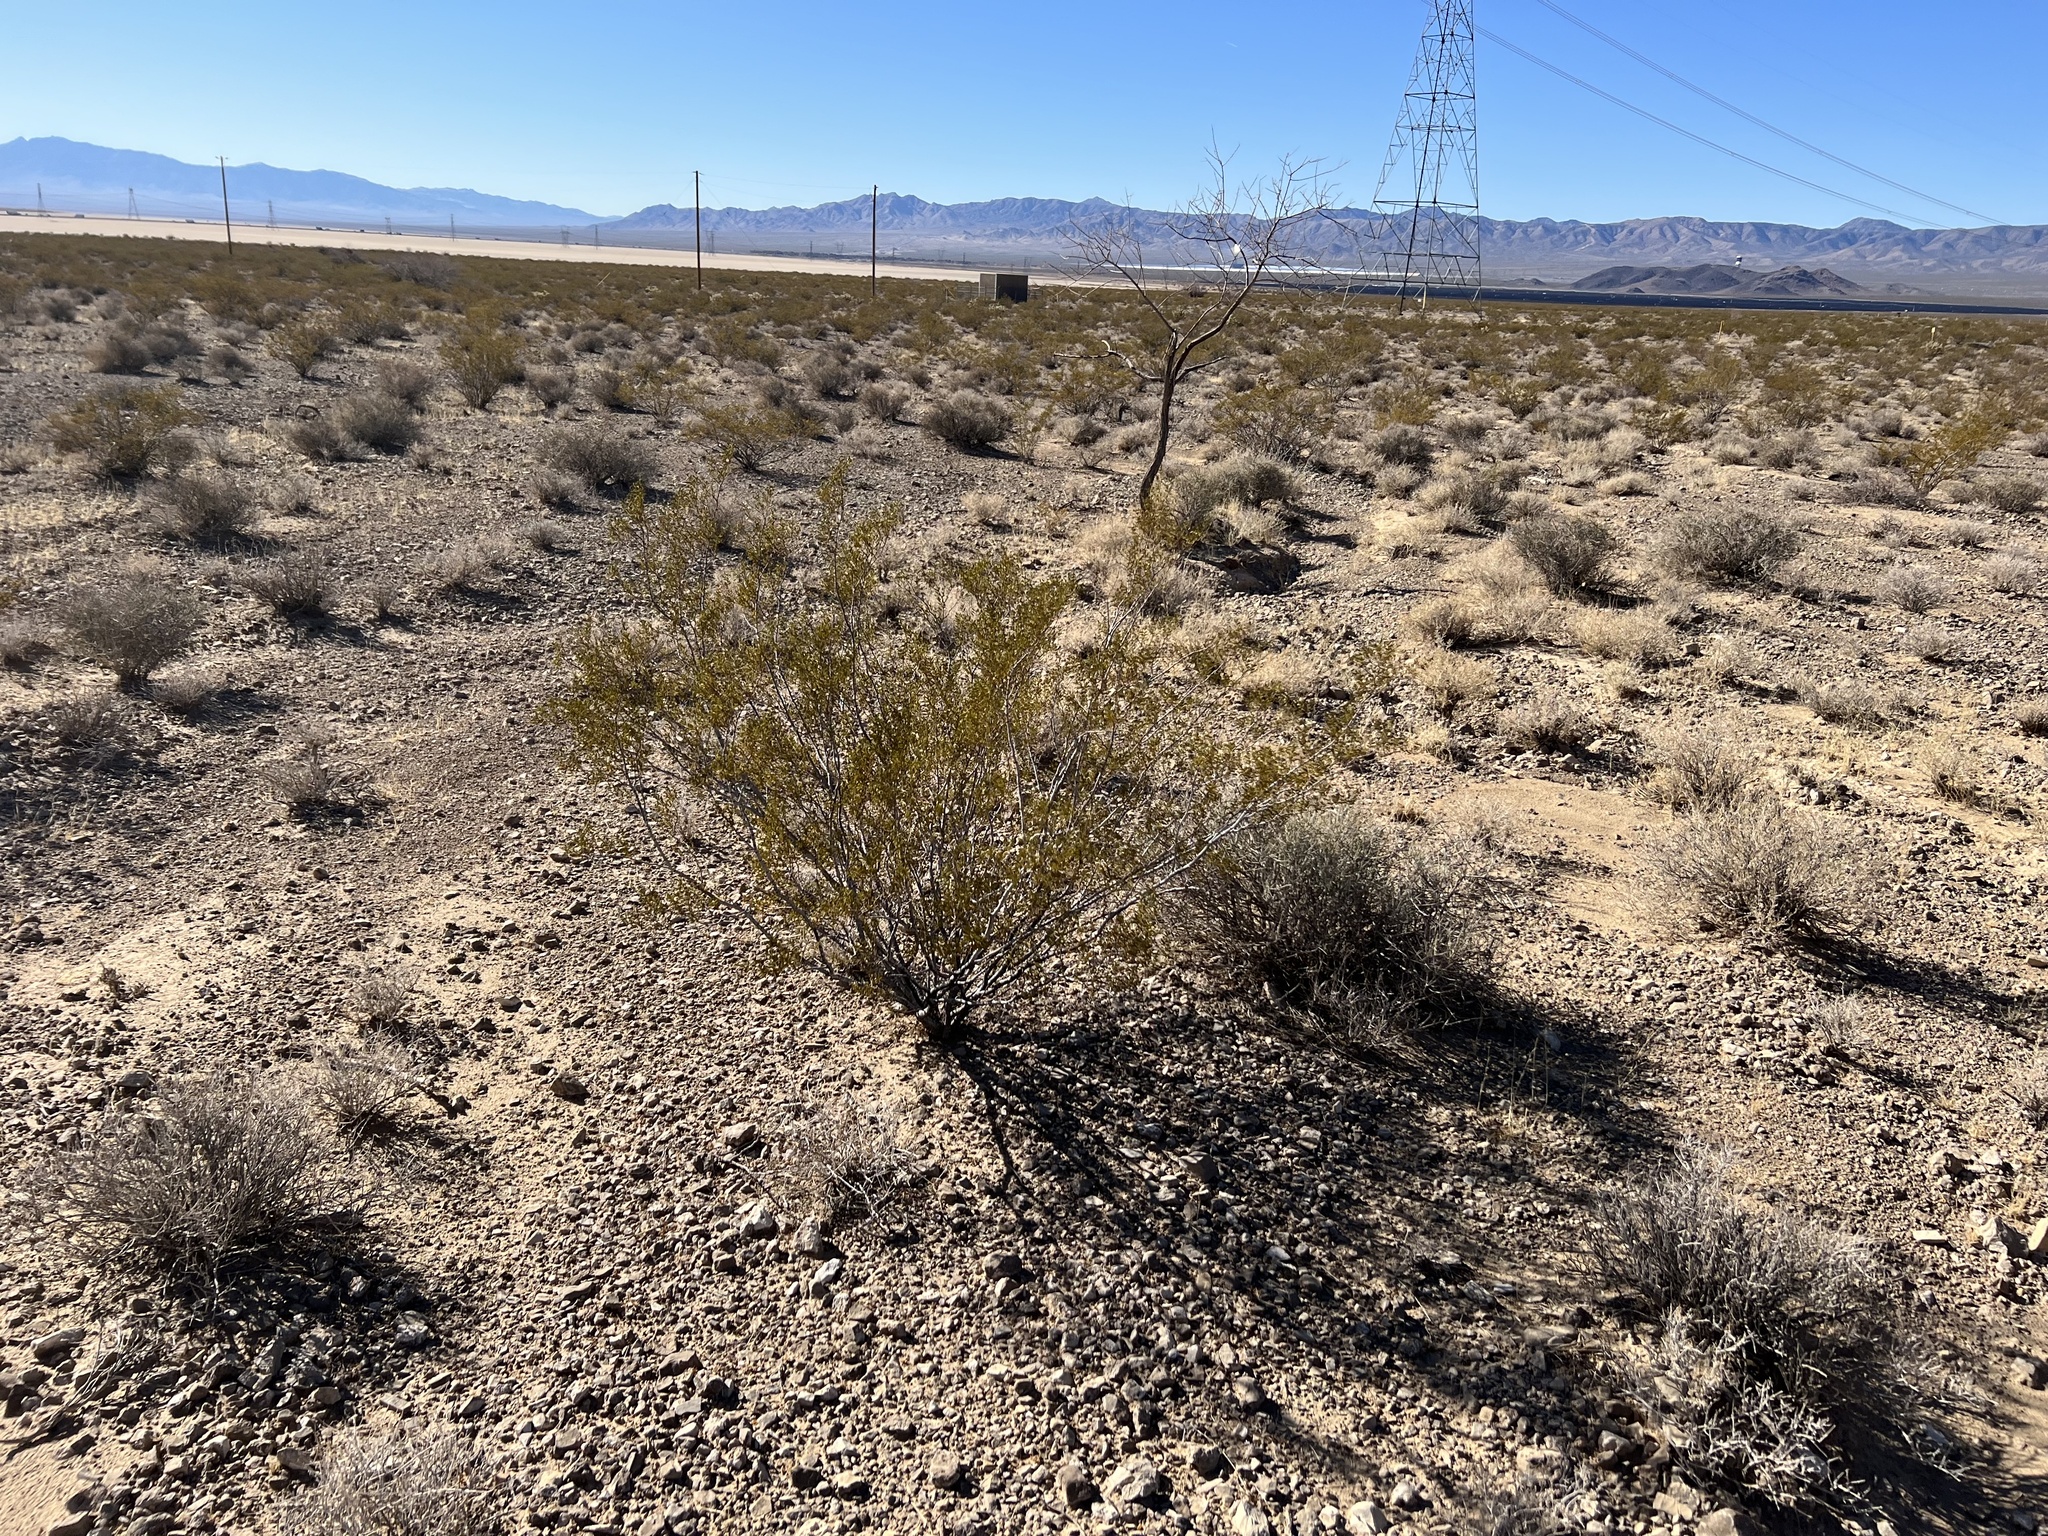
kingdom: Plantae
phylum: Tracheophyta
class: Magnoliopsida
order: Zygophyllales
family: Zygophyllaceae
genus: Larrea
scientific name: Larrea tridentata
